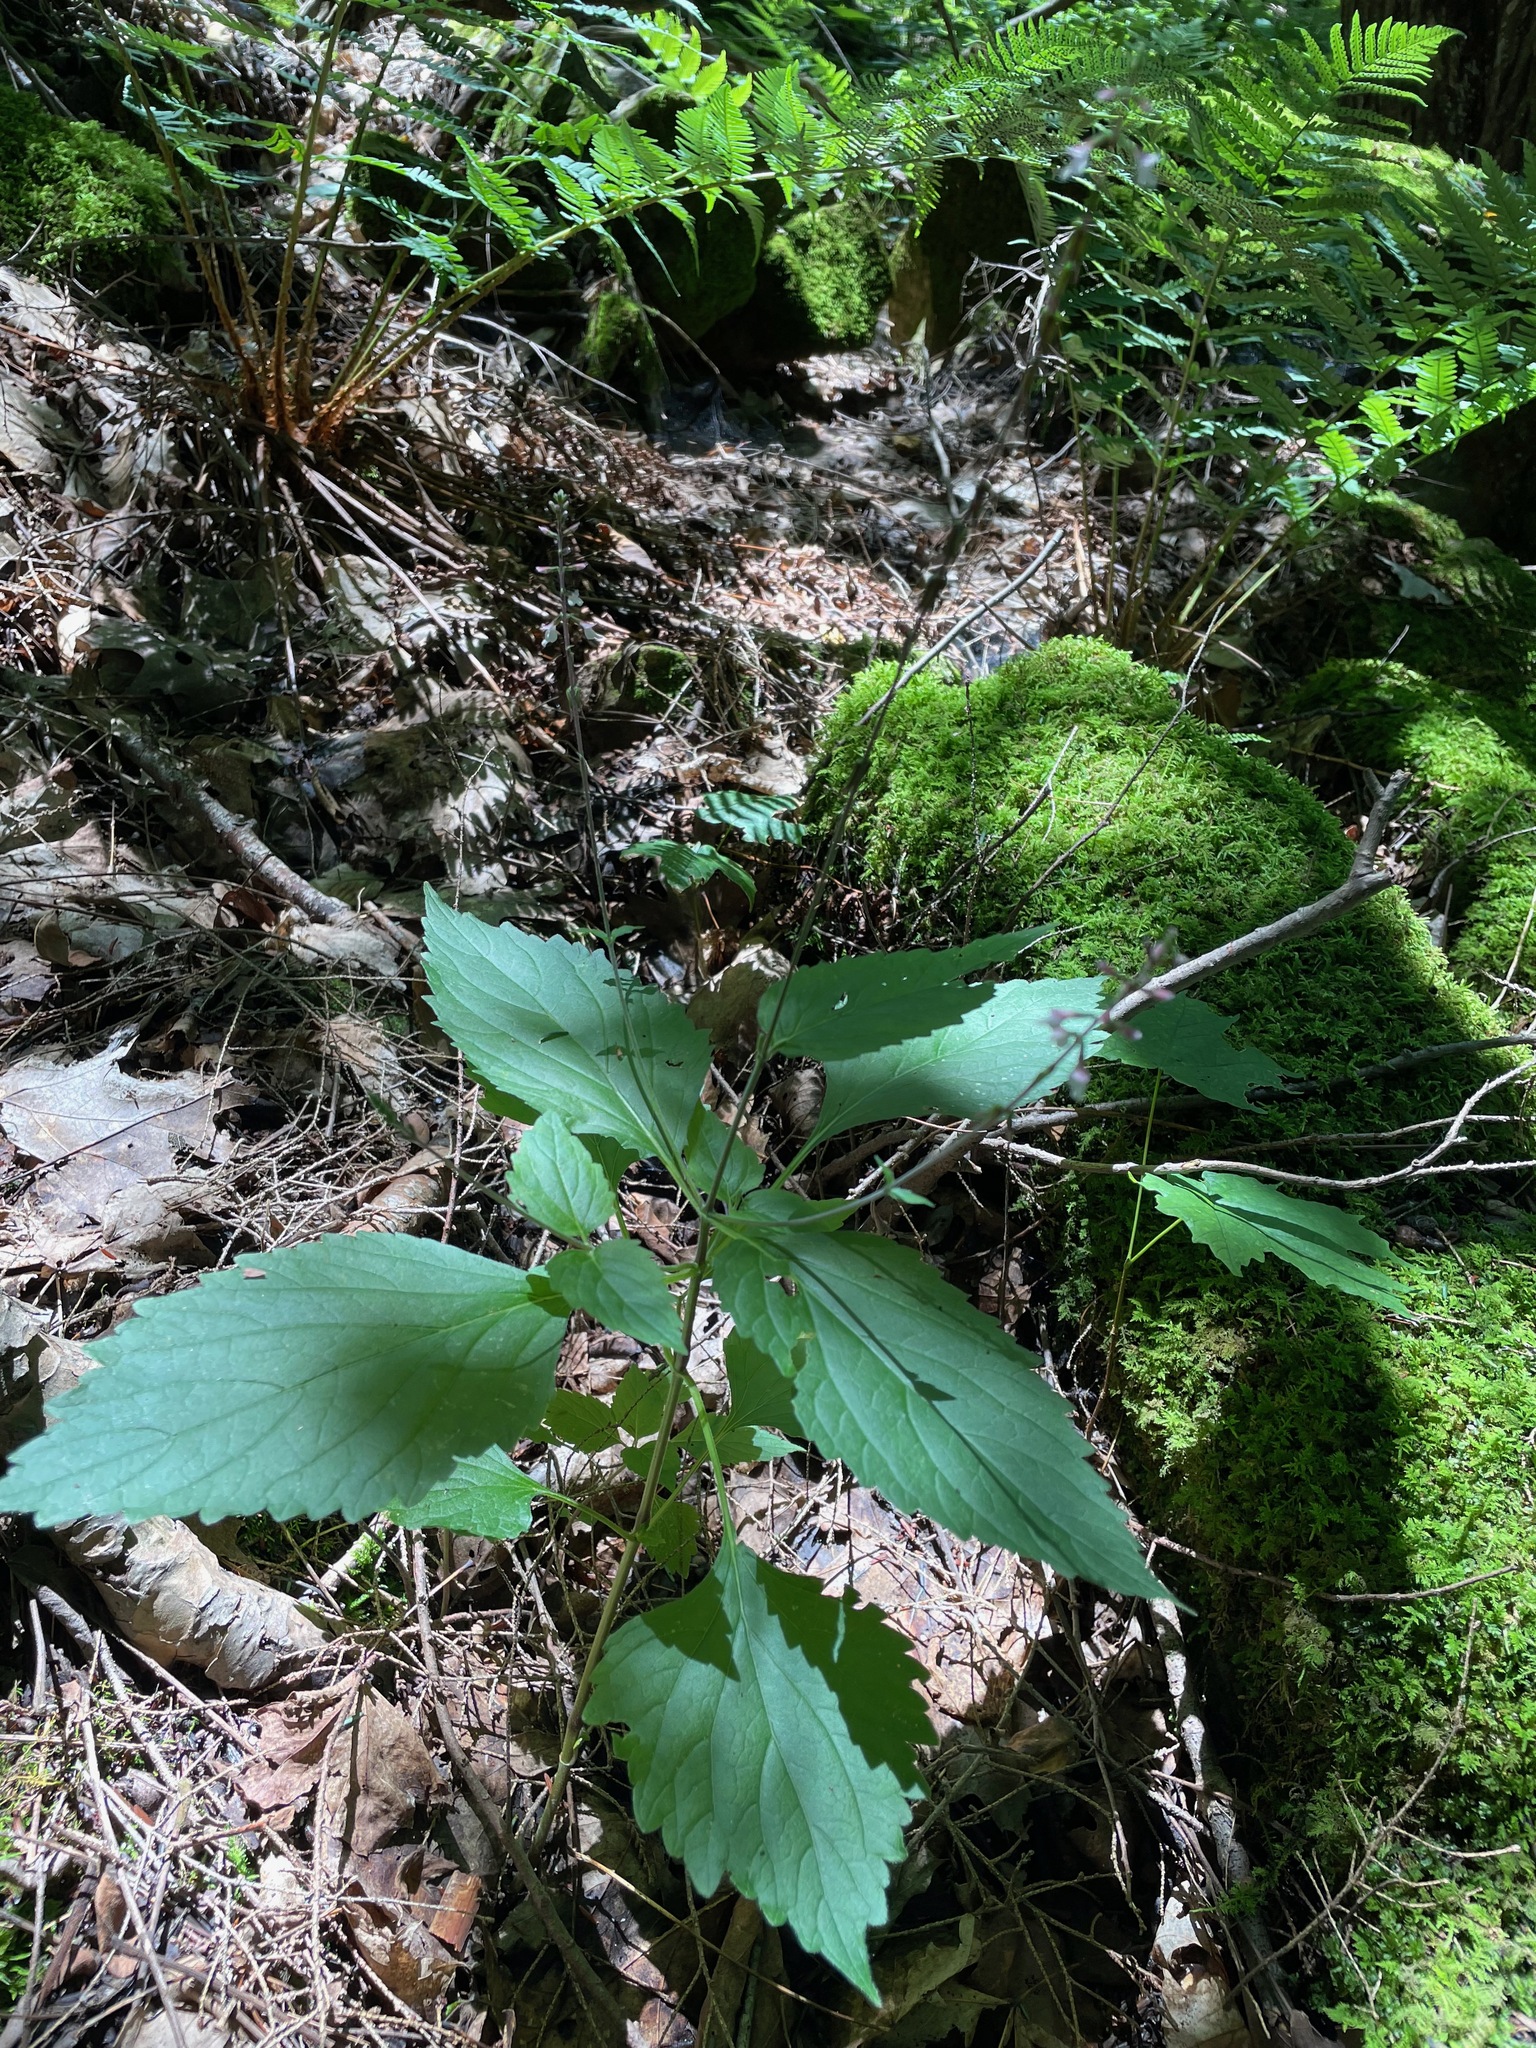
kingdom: Plantae
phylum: Tracheophyta
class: Magnoliopsida
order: Lamiales
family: Phrymaceae
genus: Phryma
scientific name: Phryma leptostachya
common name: American lopseed
